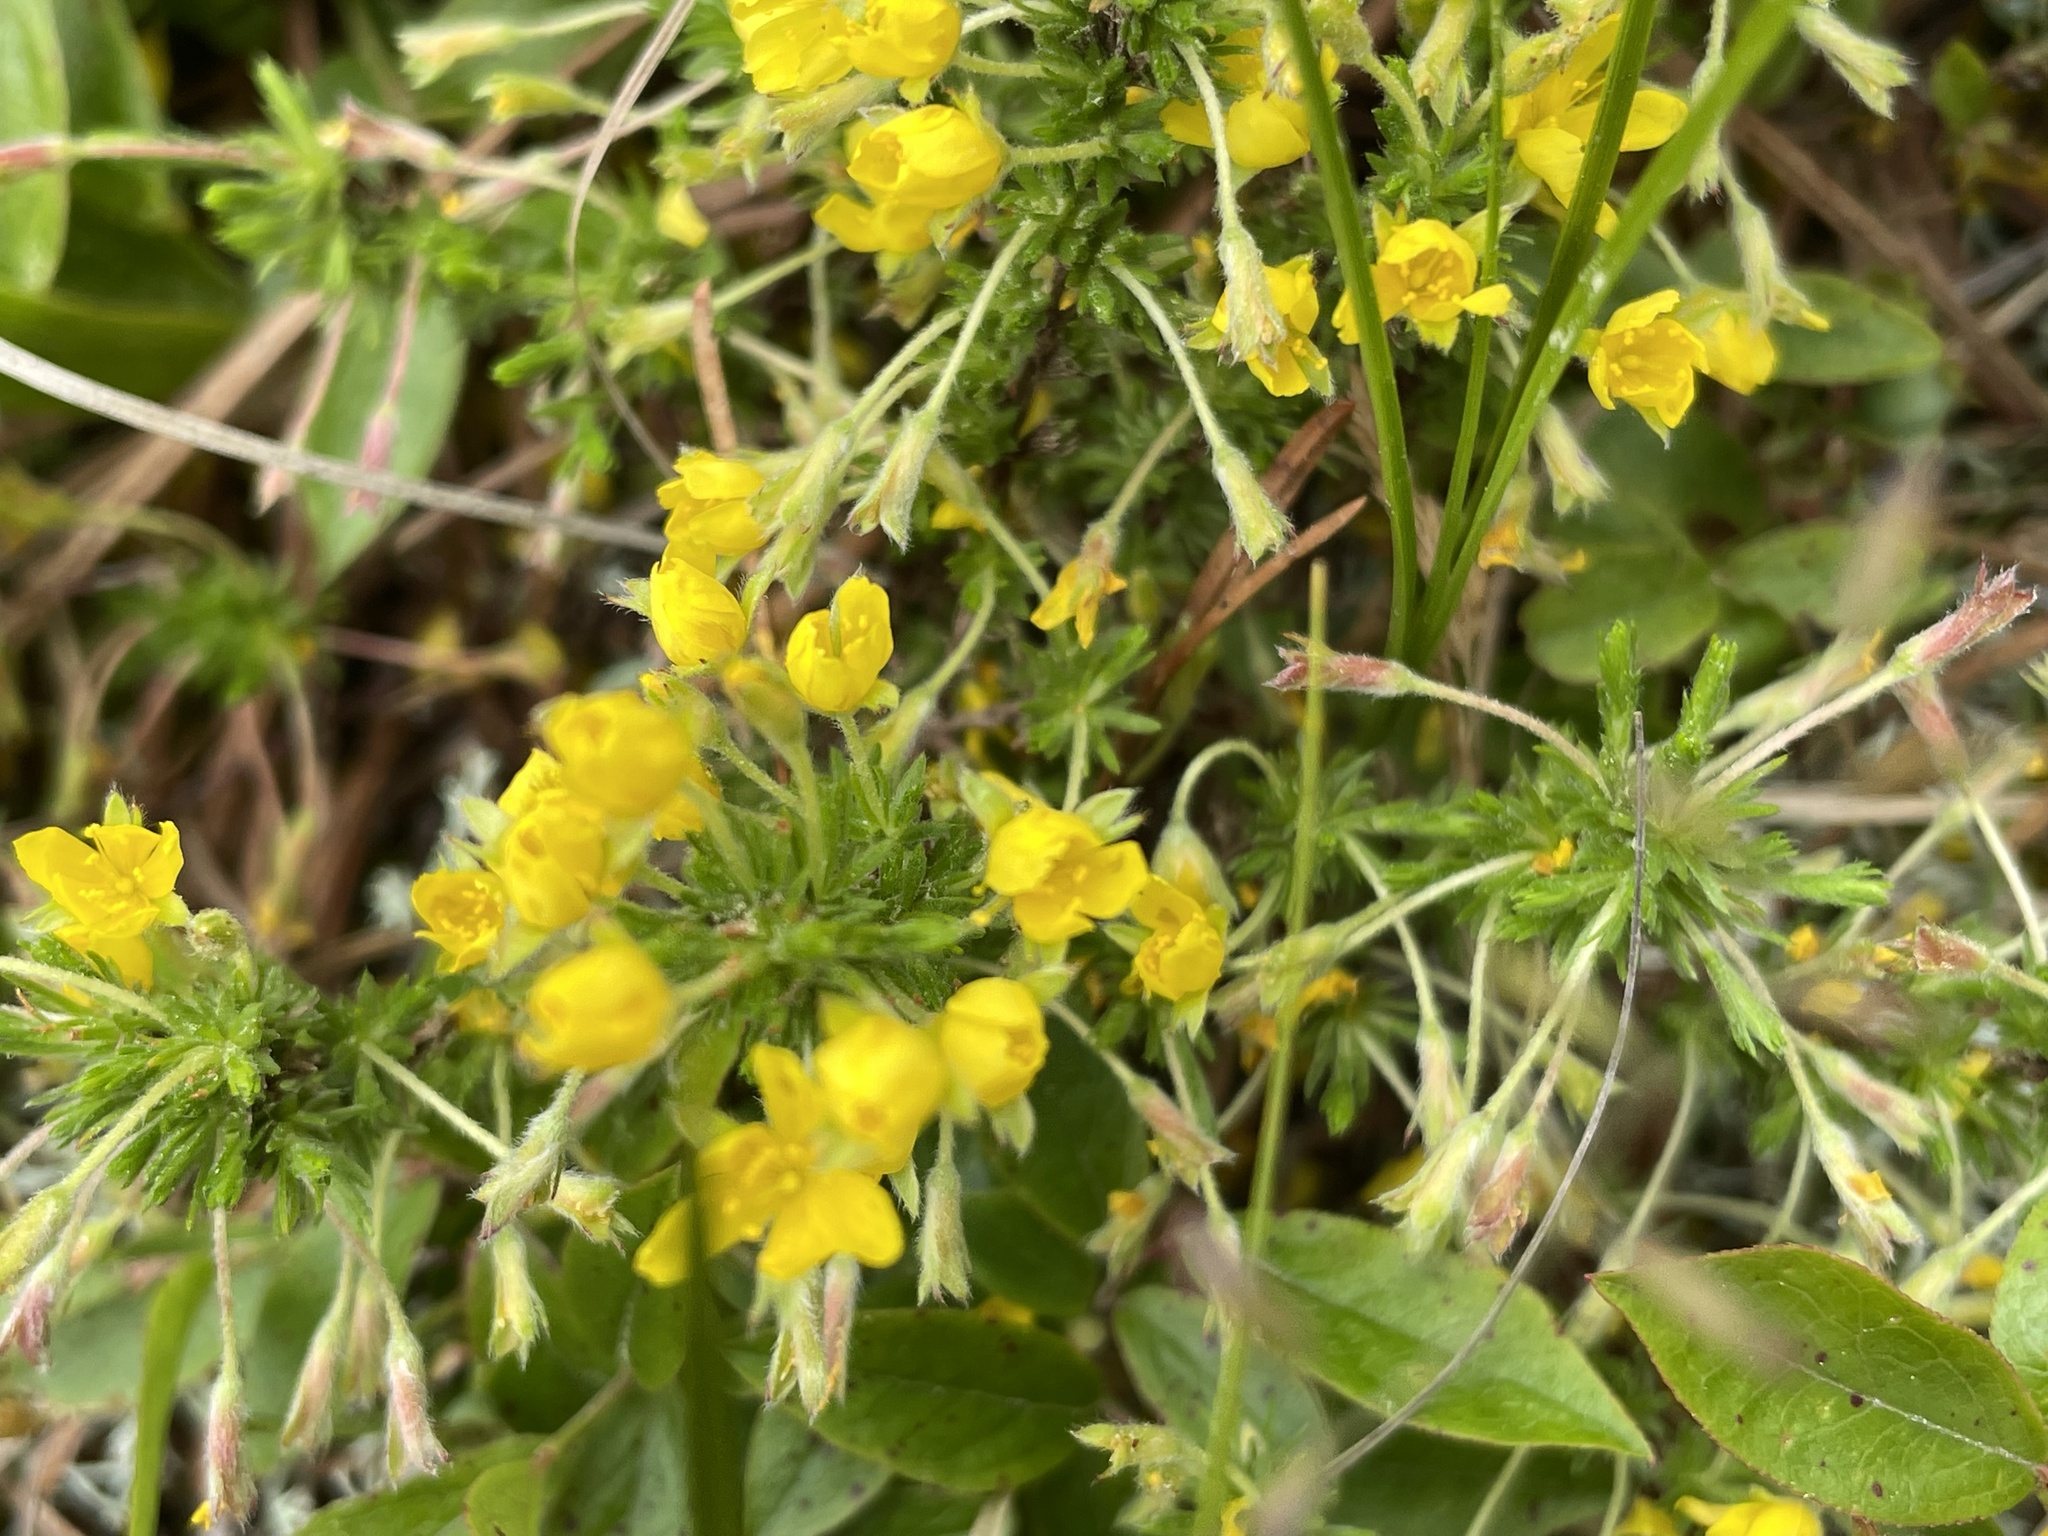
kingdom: Plantae
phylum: Tracheophyta
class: Magnoliopsida
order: Malvales
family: Cistaceae
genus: Hudsonia
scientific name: Hudsonia ericoides
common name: Golden-heather
